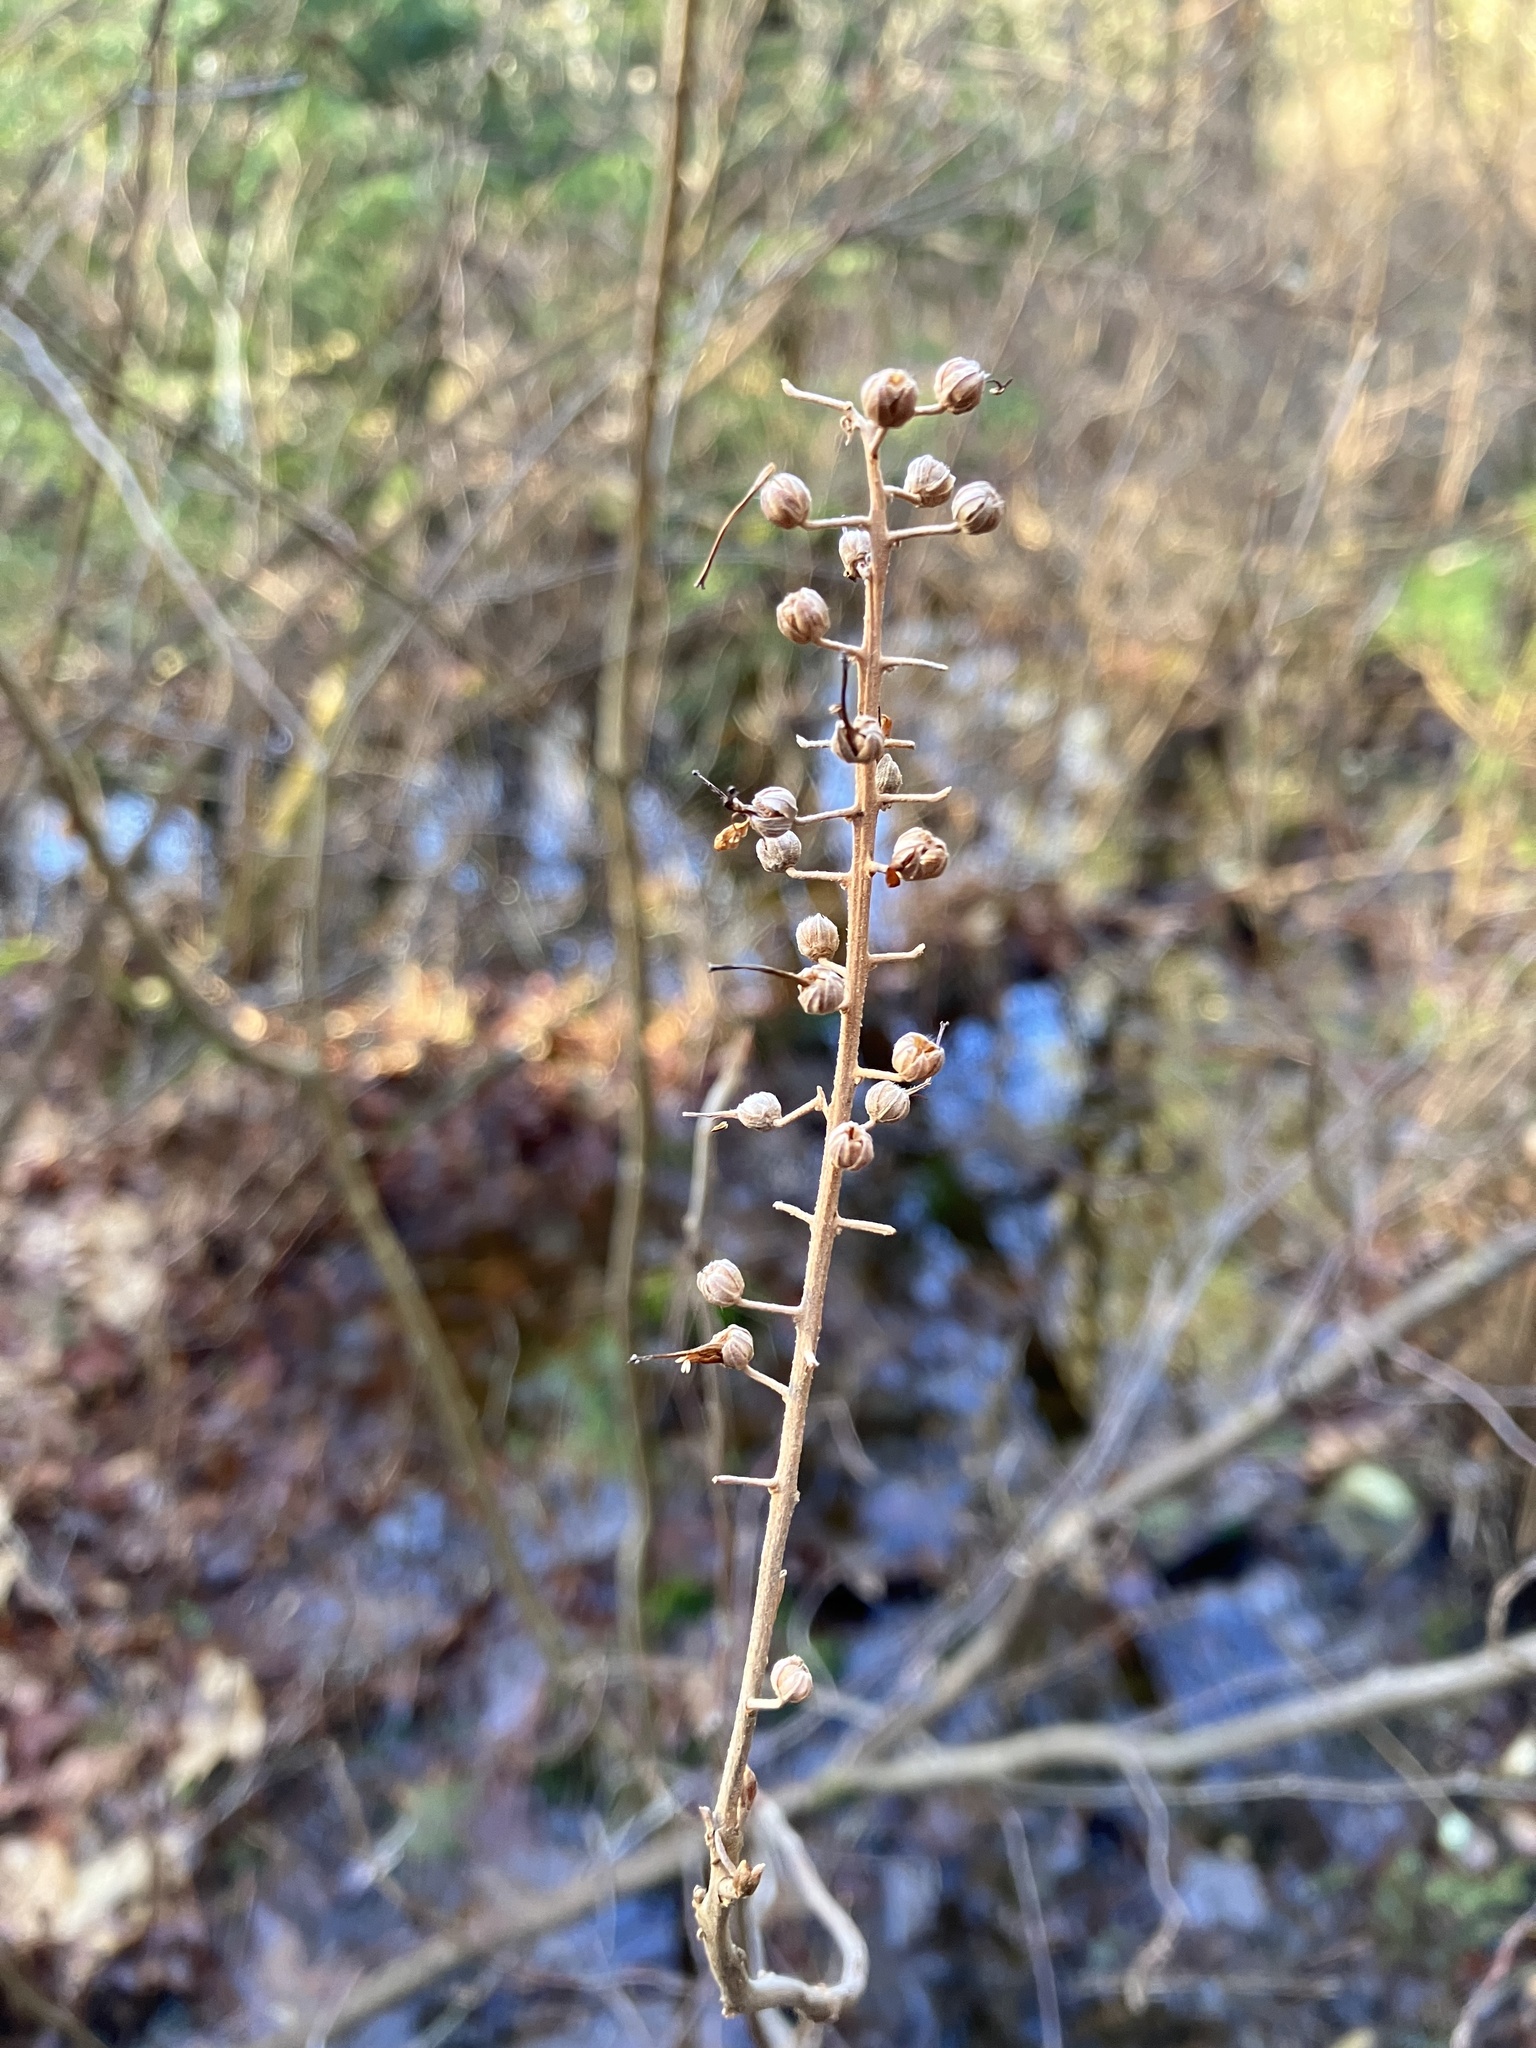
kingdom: Plantae
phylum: Tracheophyta
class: Magnoliopsida
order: Ericales
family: Clethraceae
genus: Clethra
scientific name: Clethra alnifolia
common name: Sweet pepperbush
